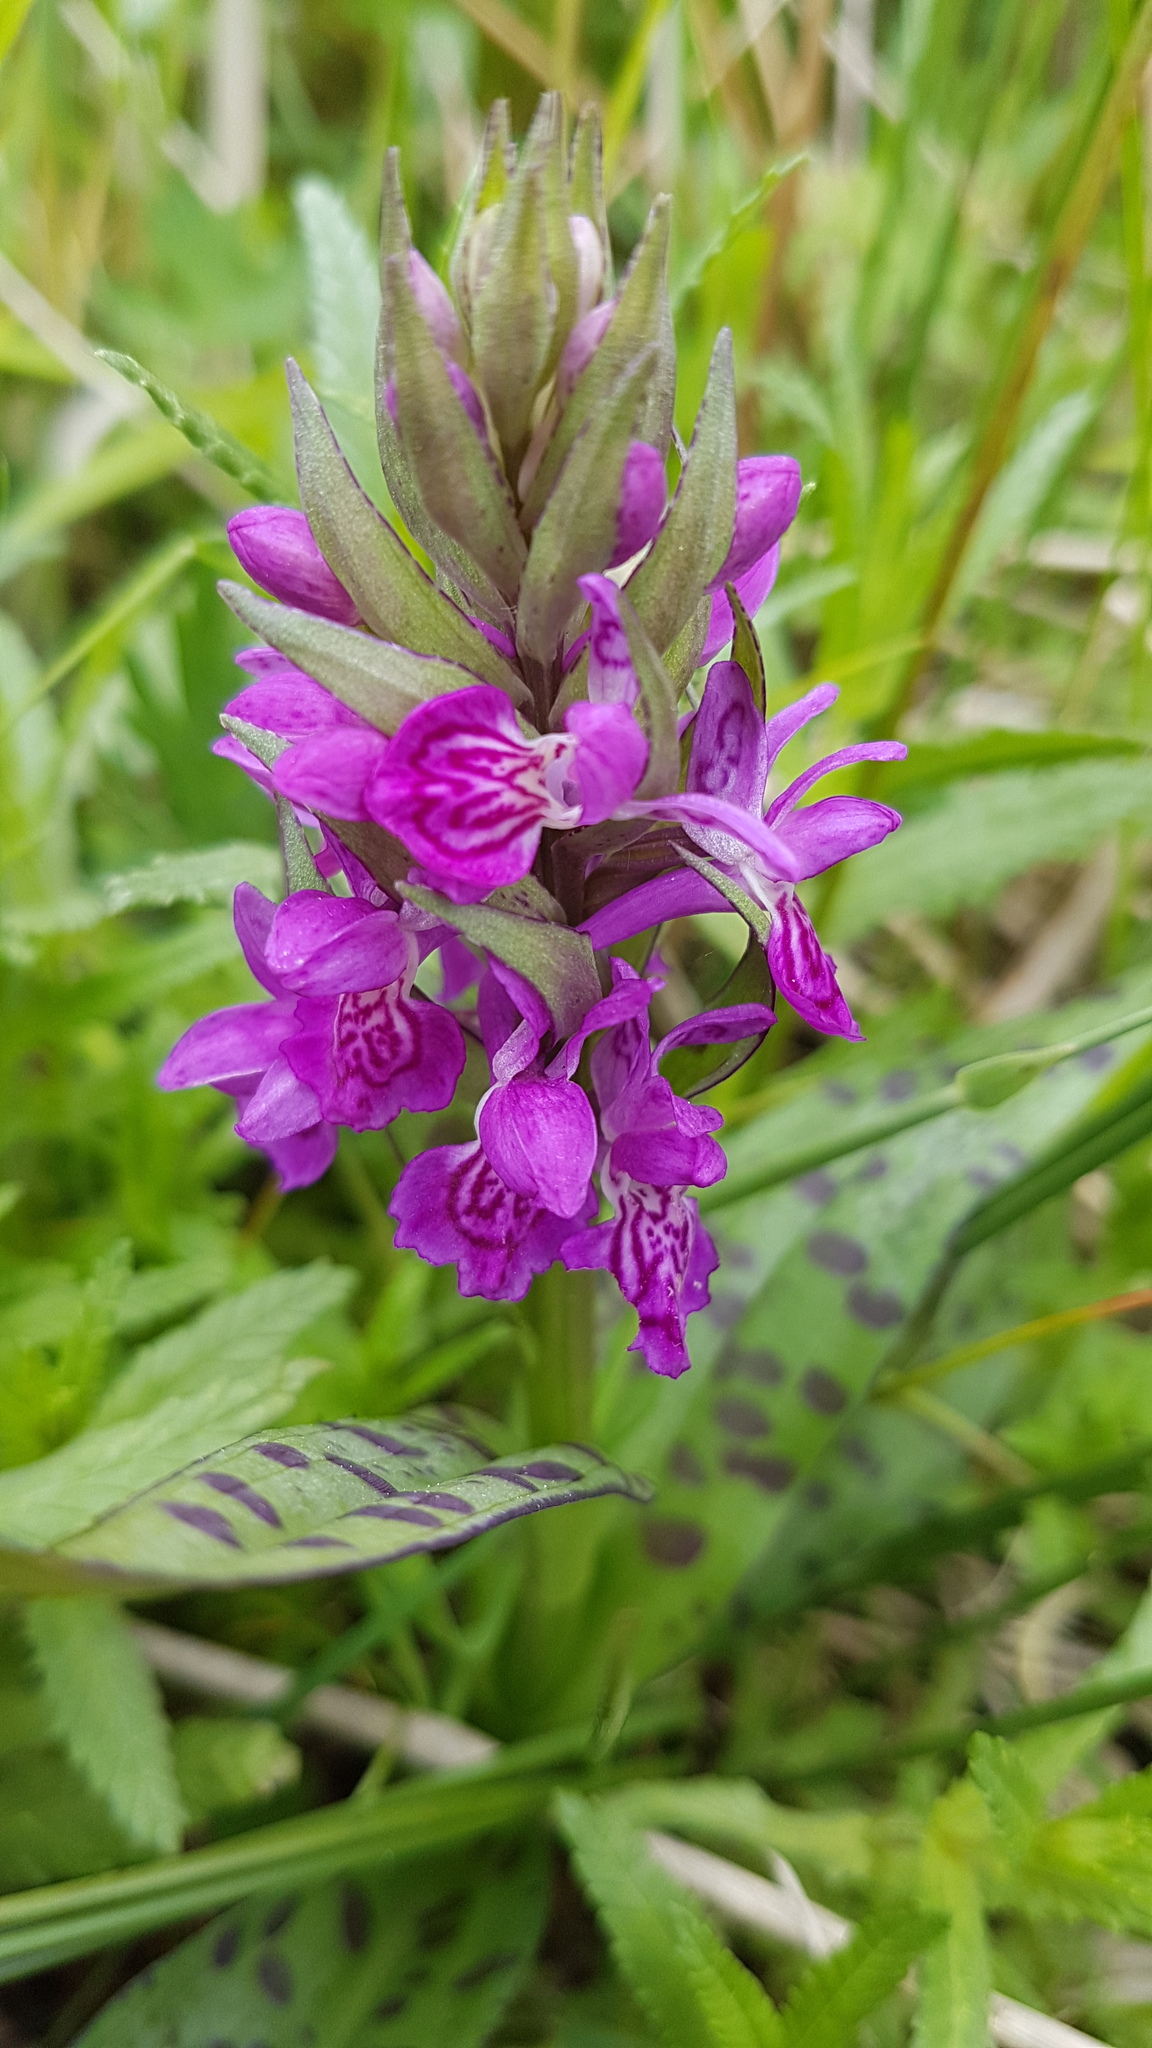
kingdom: Plantae
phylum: Tracheophyta
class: Liliopsida
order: Asparagales
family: Orchidaceae
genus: Dactylorhiza
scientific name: Dactylorhiza majalis
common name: Marsh orchid
